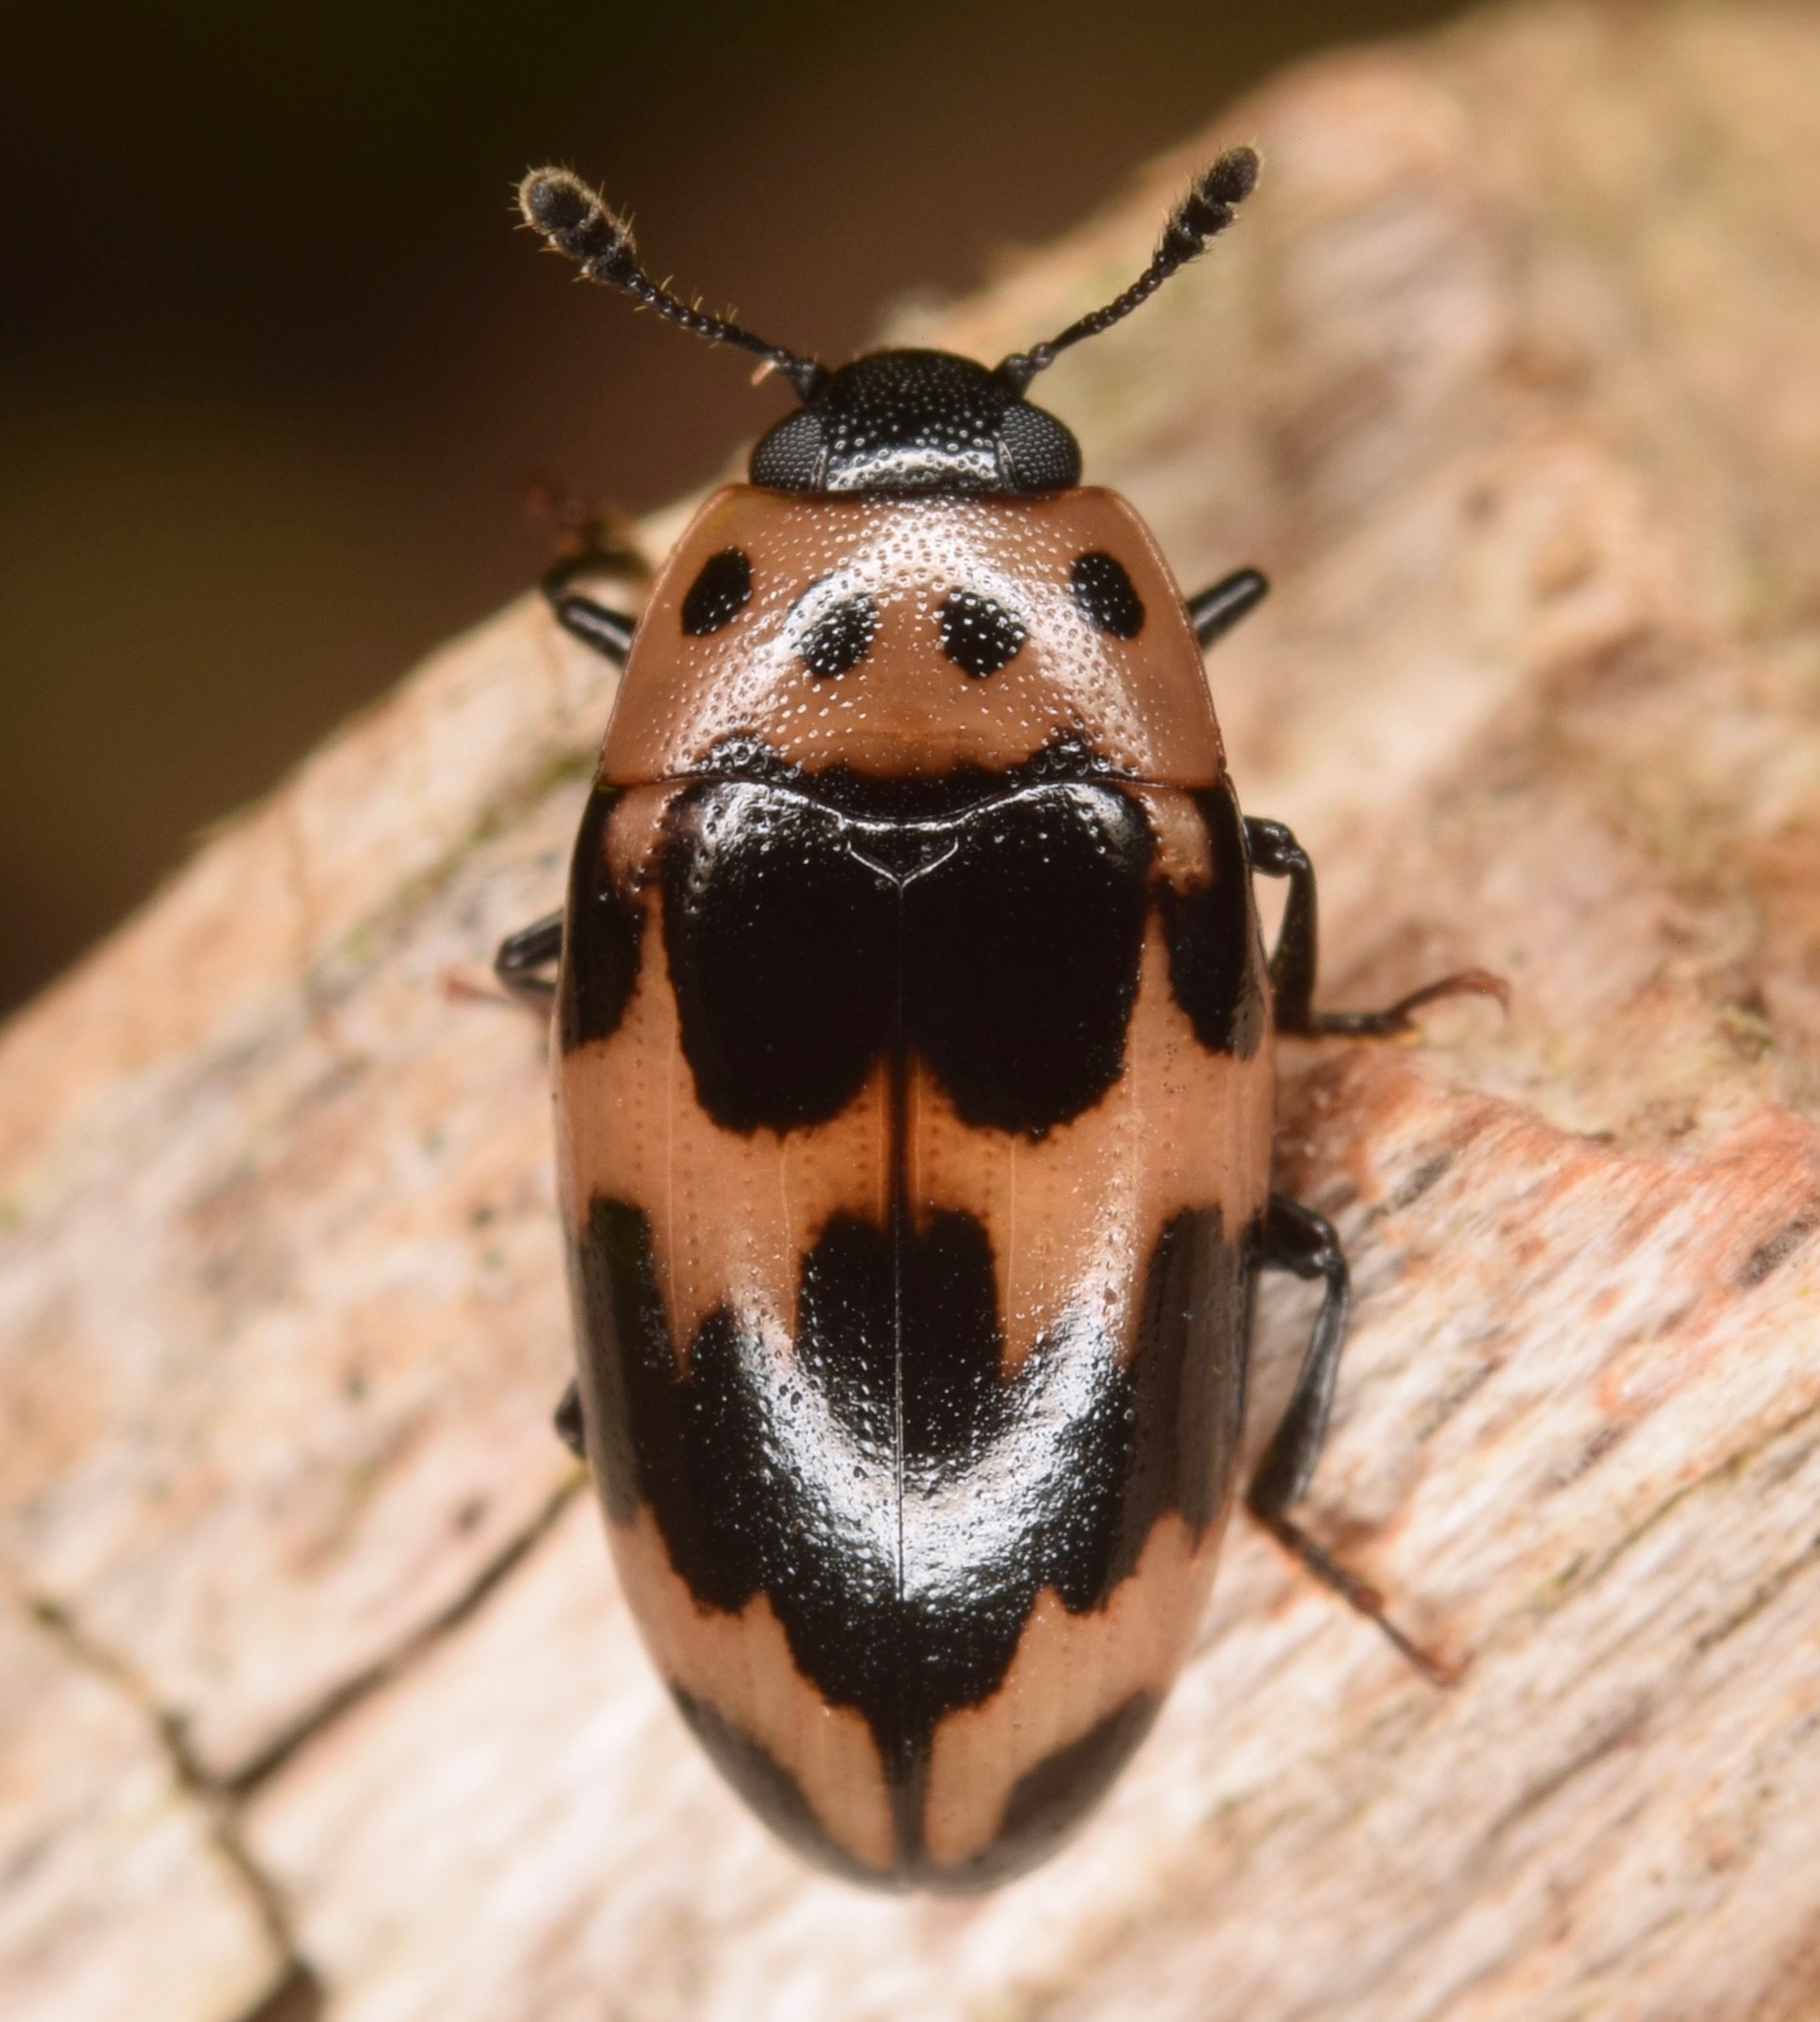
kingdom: Animalia
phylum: Arthropoda
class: Insecta
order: Coleoptera
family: Erotylidae
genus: Ischyrus
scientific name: Ischyrus quadripunctatus
